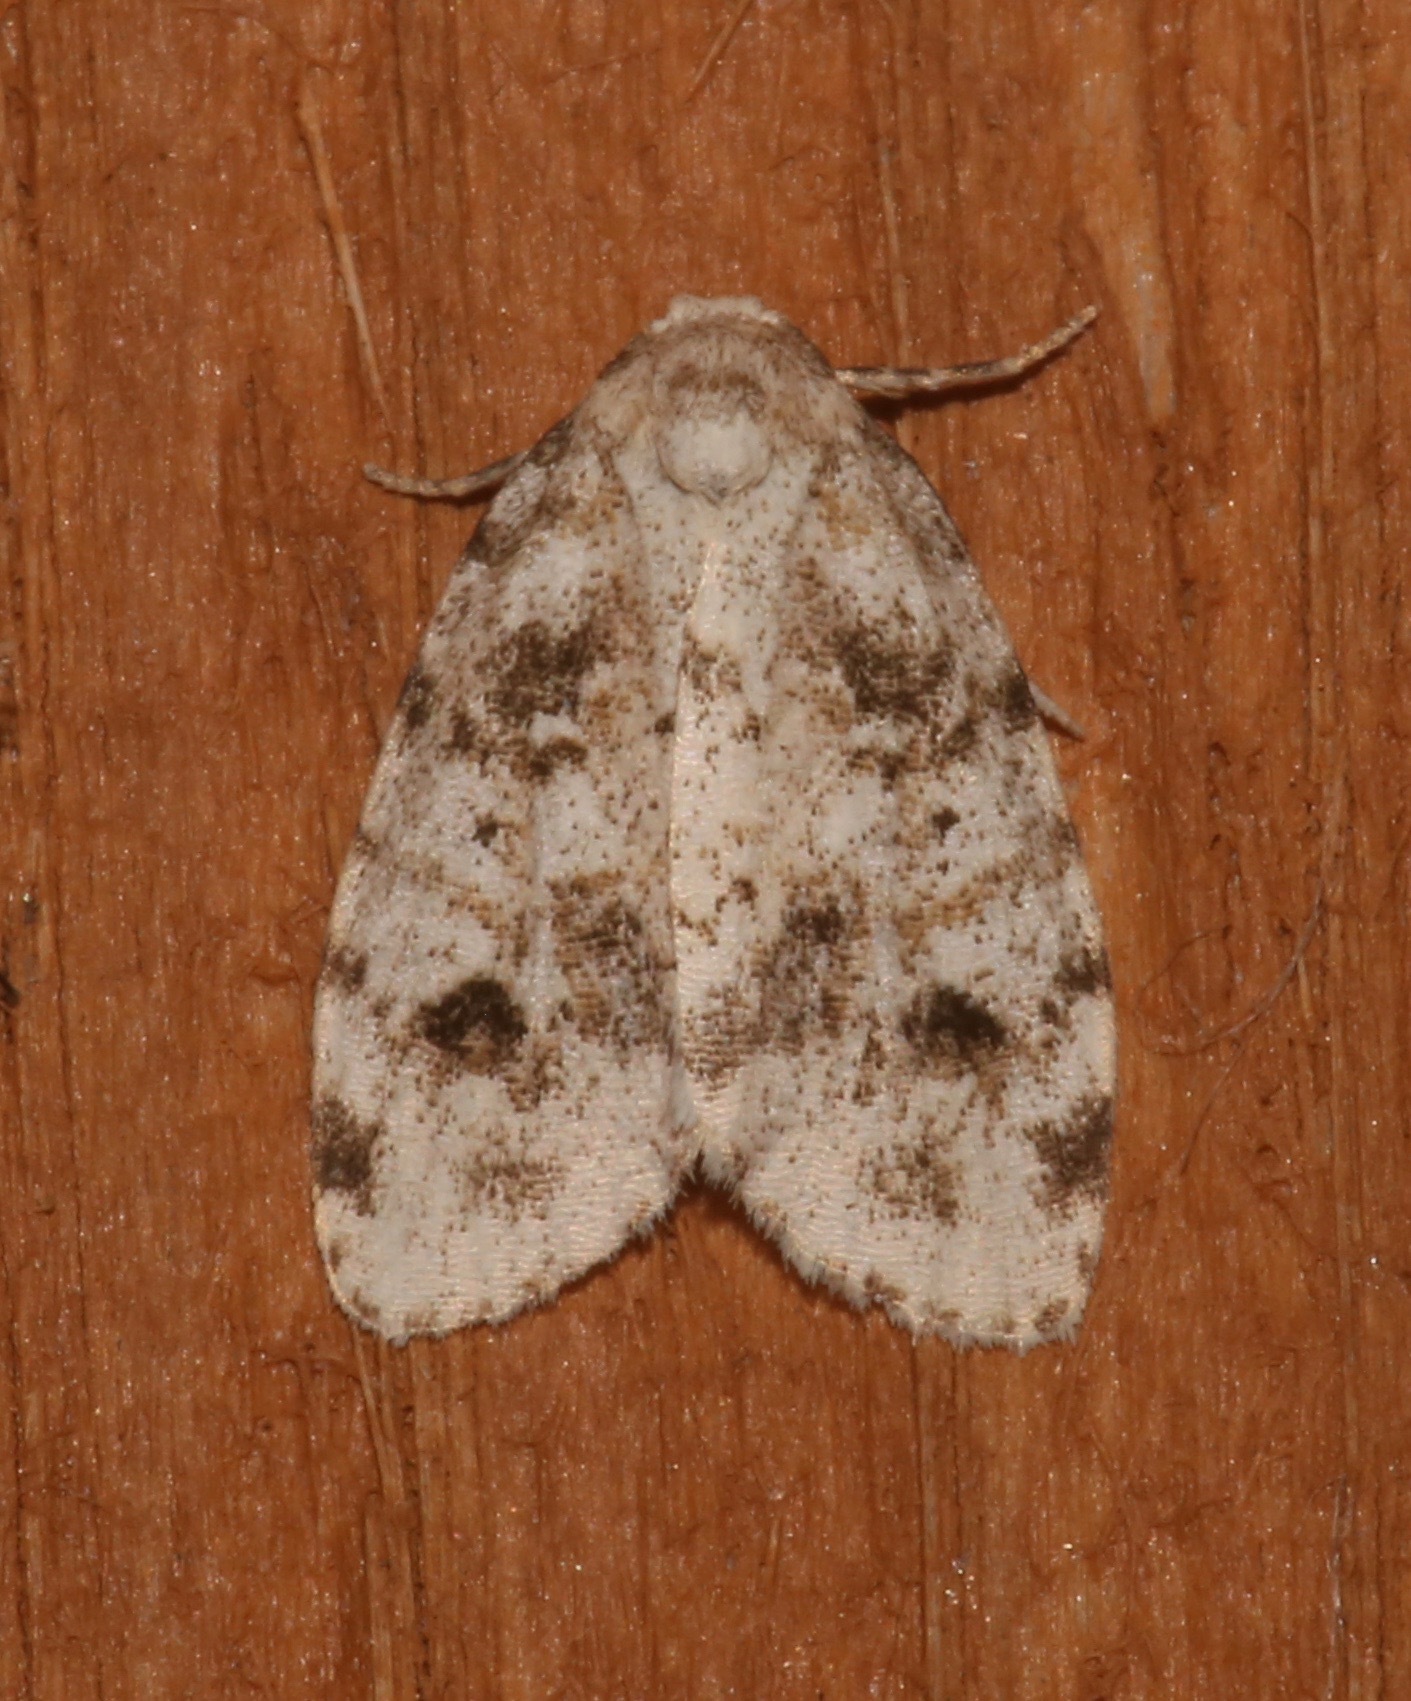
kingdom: Animalia
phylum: Arthropoda
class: Insecta
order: Lepidoptera
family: Erebidae
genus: Clemensia
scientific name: Clemensia ochreata
